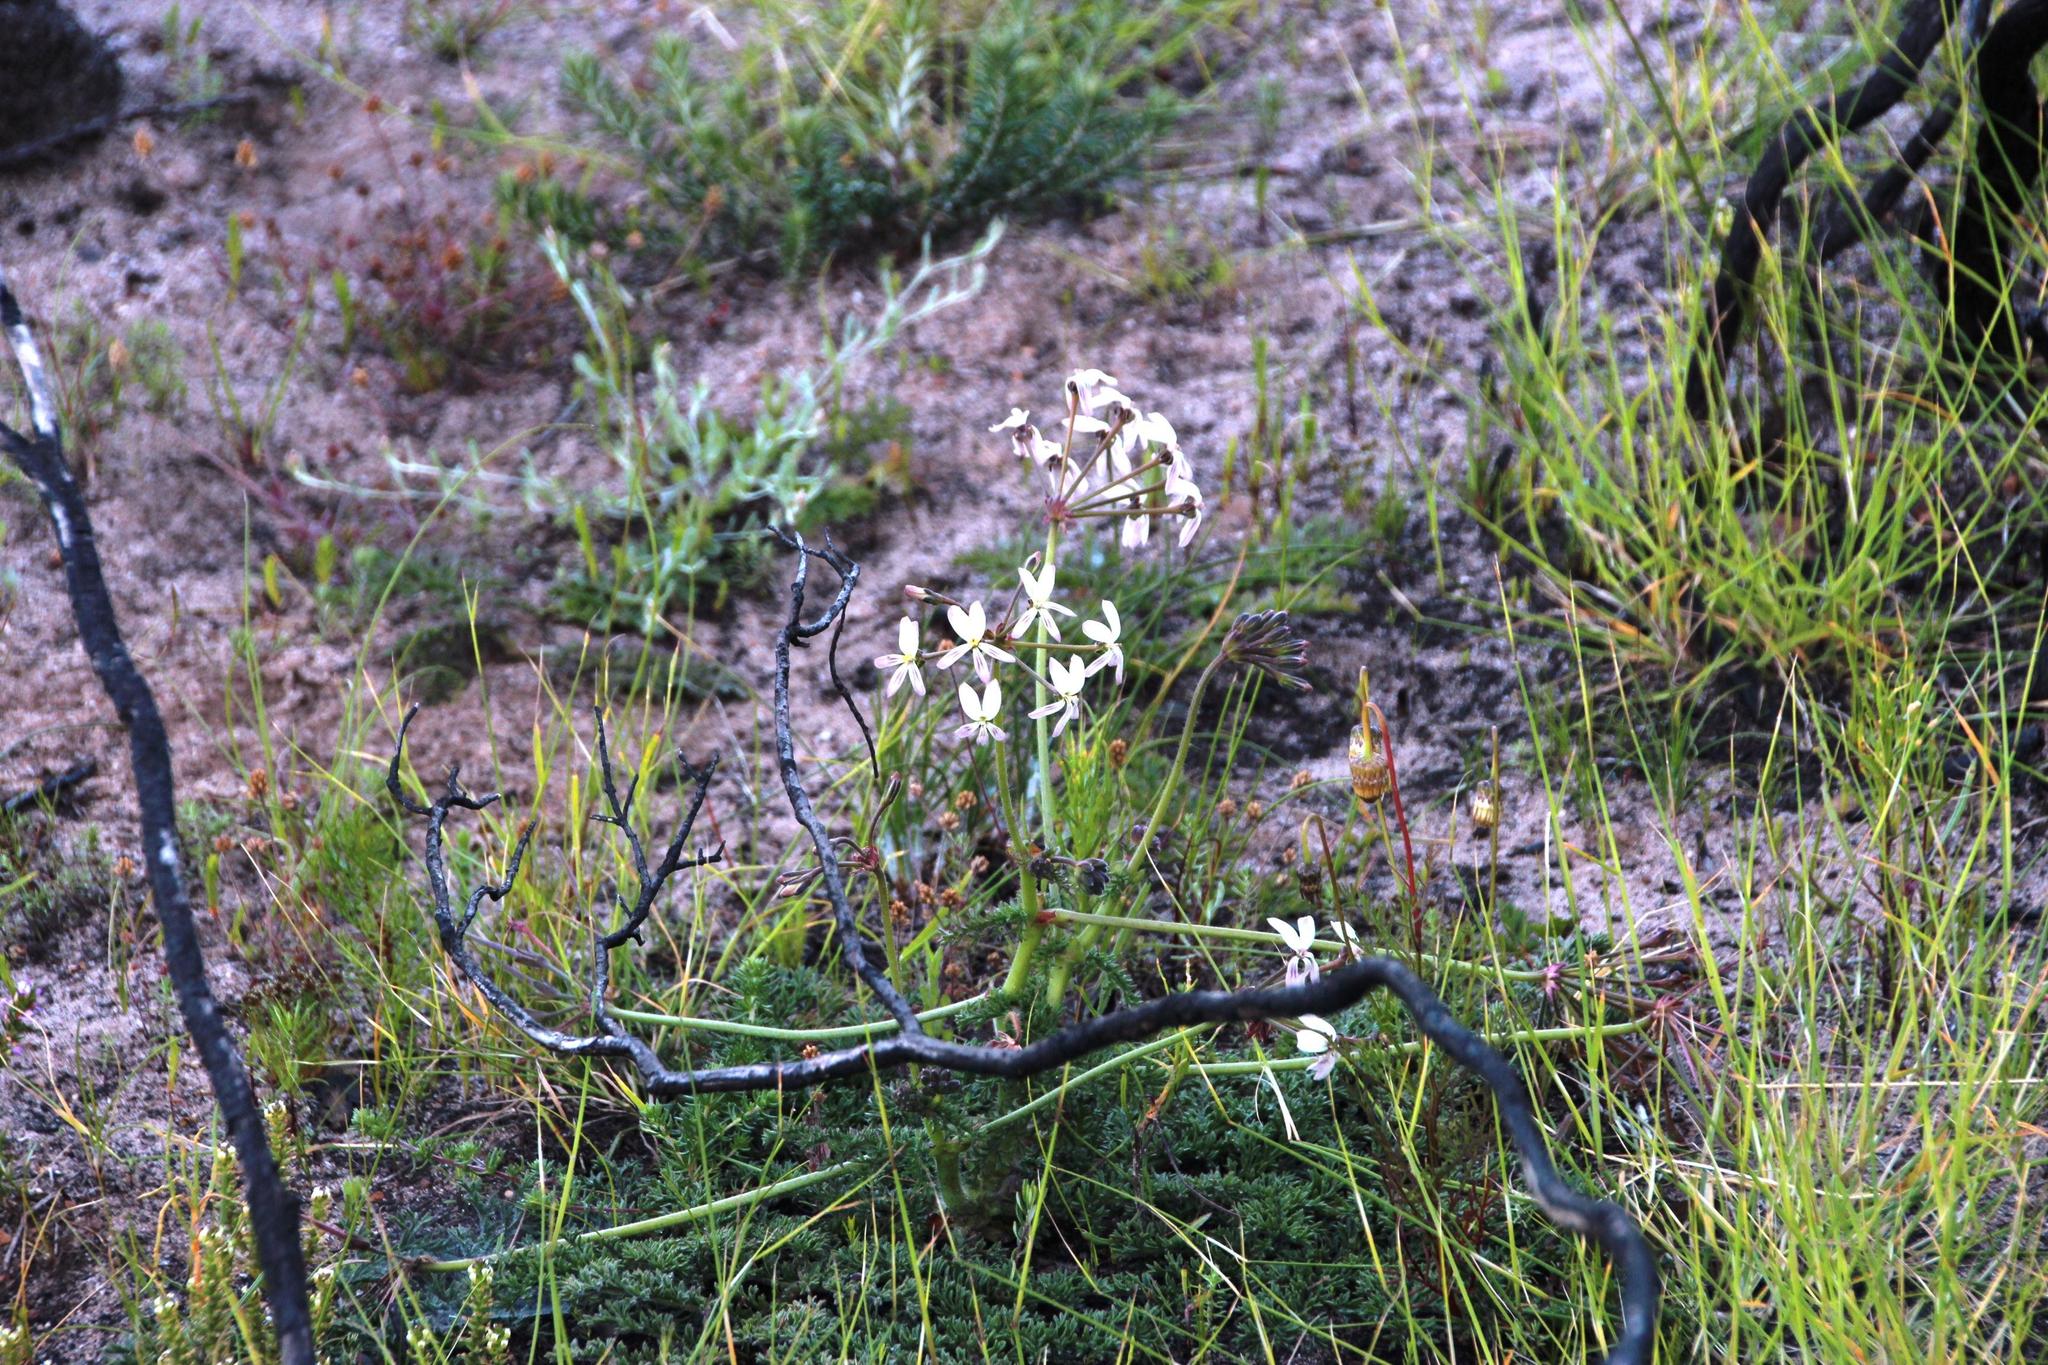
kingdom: Plantae
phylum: Tracheophyta
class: Magnoliopsida
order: Geraniales
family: Geraniaceae
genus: Pelargonium
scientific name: Pelargonium triste
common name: Night-scent pelargonium
